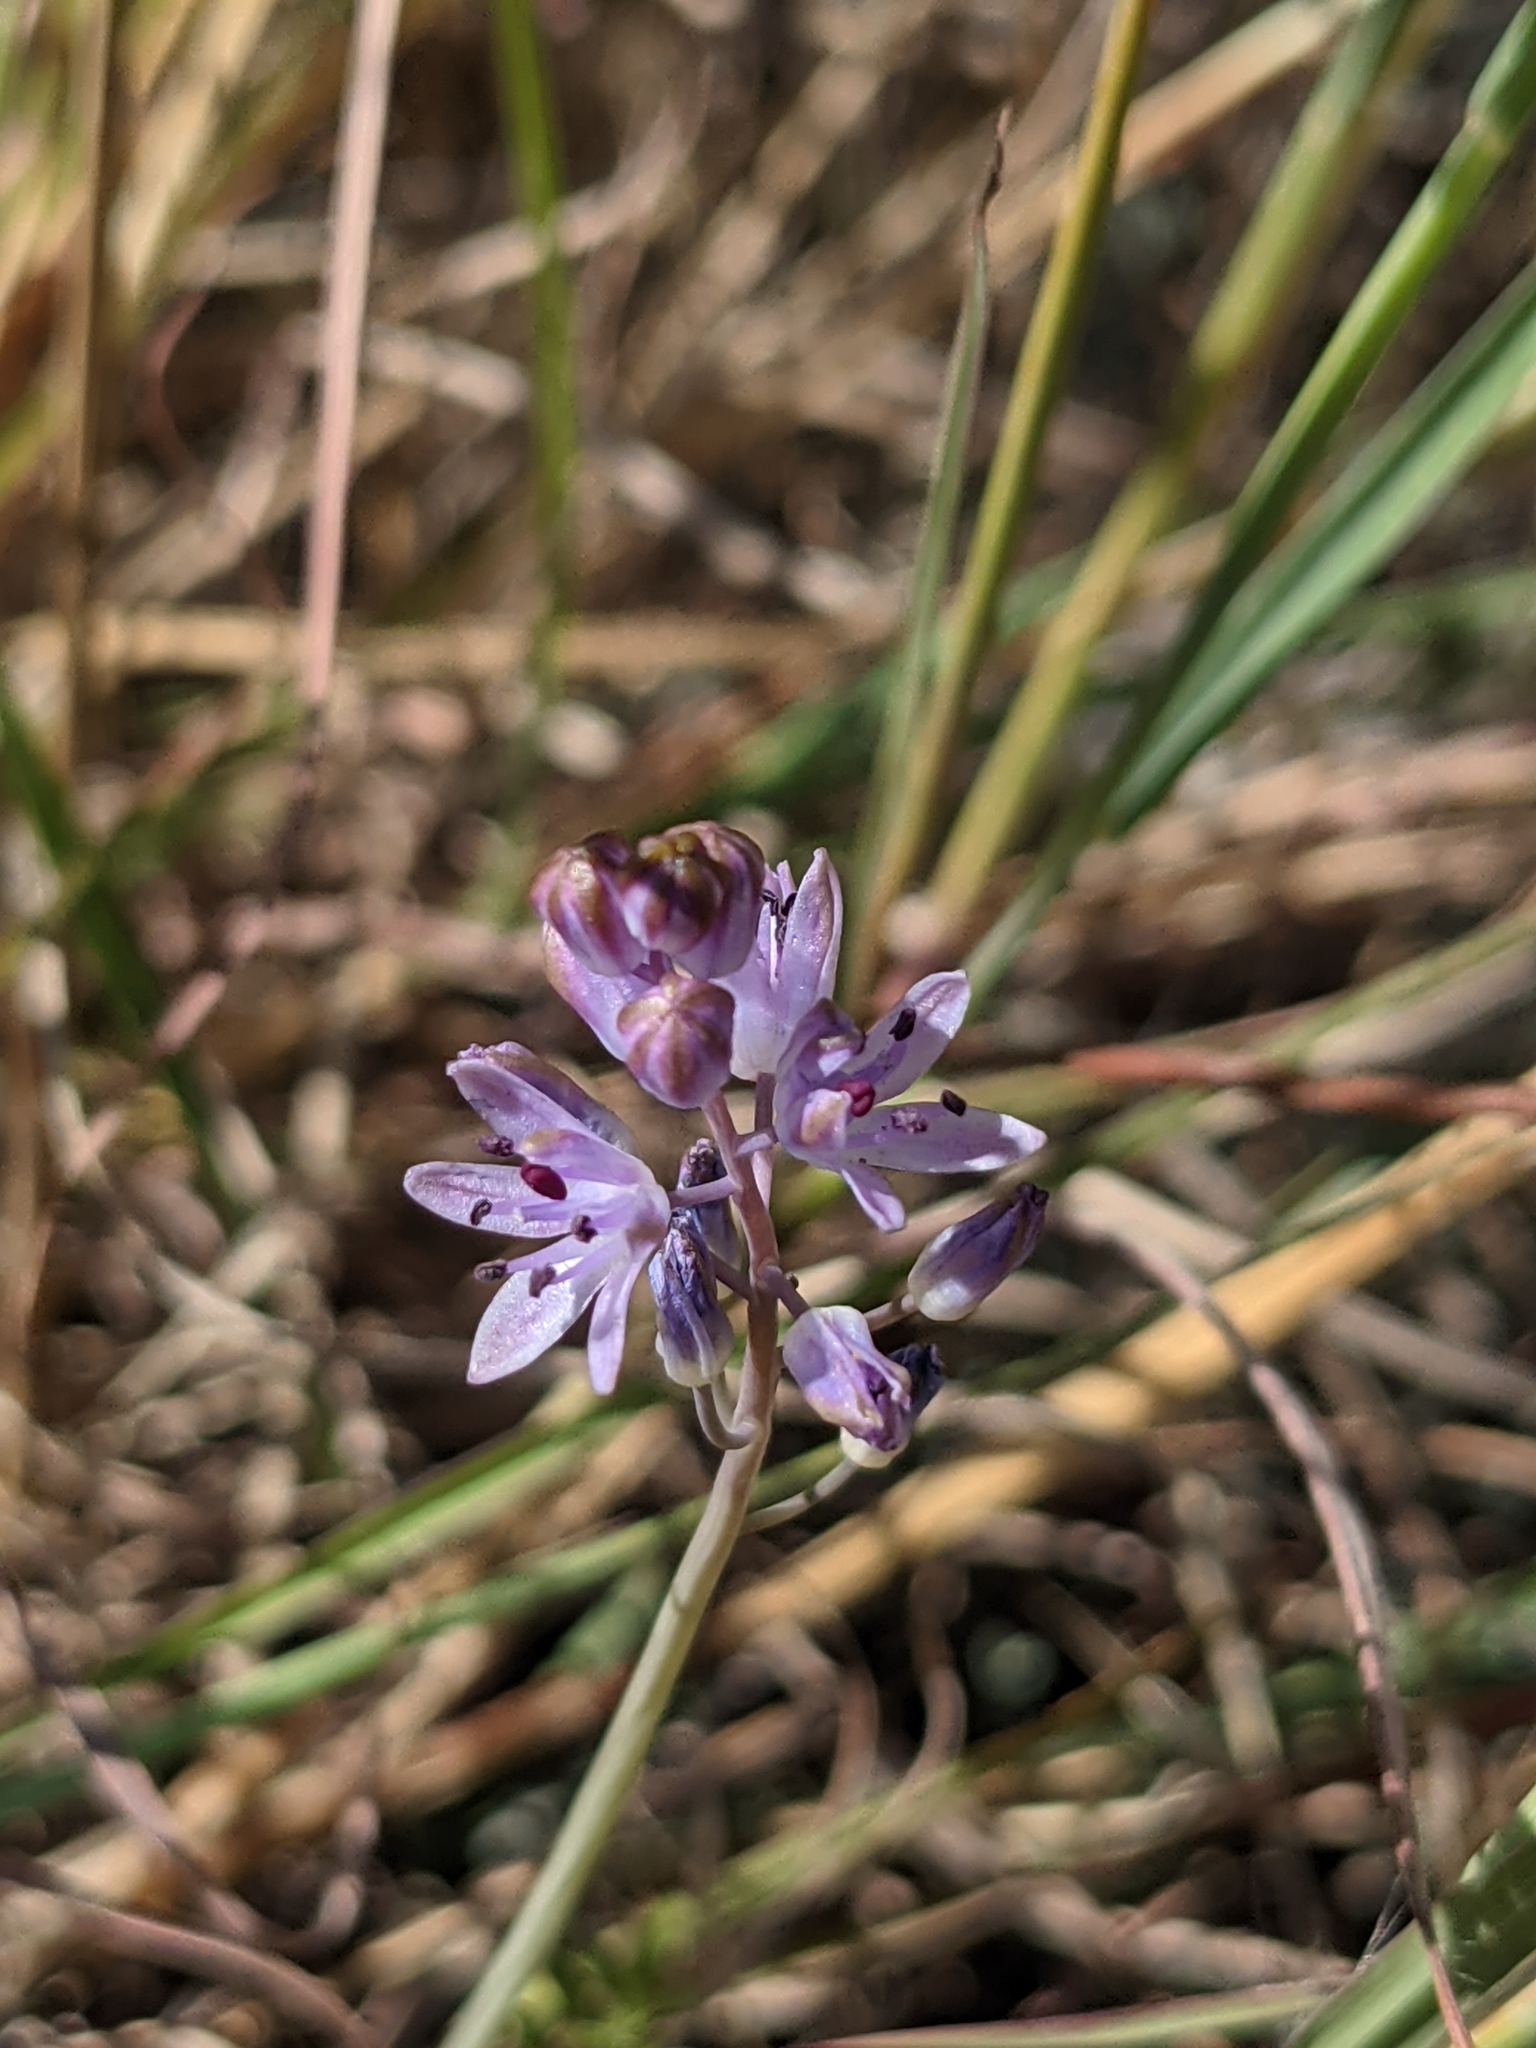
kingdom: Plantae
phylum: Tracheophyta
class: Liliopsida
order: Asparagales
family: Asparagaceae
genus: Prospero
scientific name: Prospero autumnale
